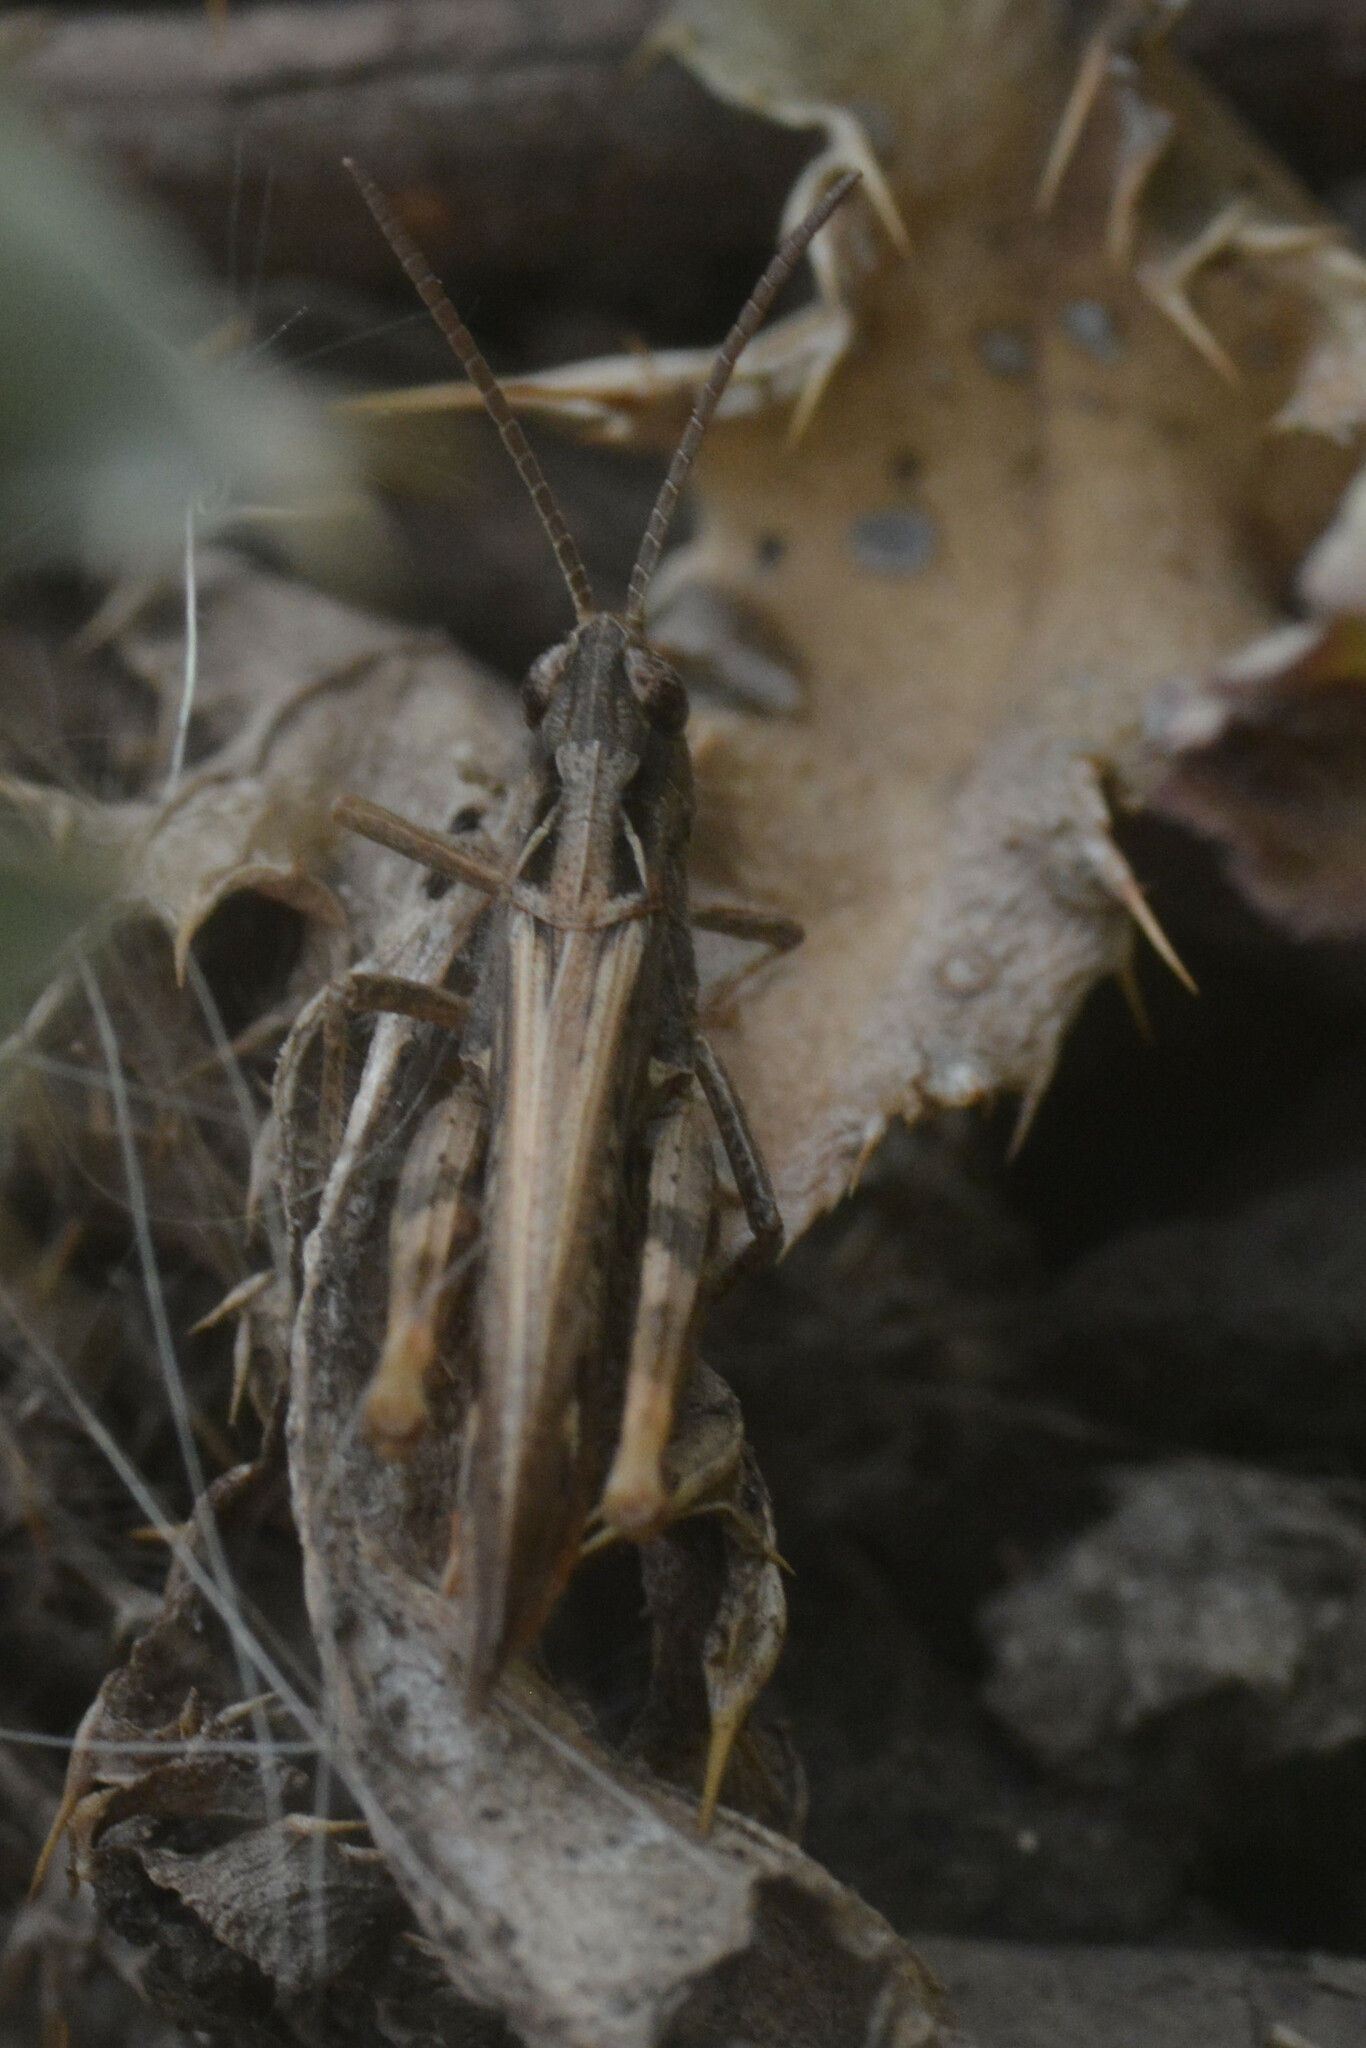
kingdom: Animalia
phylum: Arthropoda
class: Insecta
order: Orthoptera
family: Acrididae
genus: Chorthippus
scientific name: Chorthippus brunneus
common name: Field grasshopper
